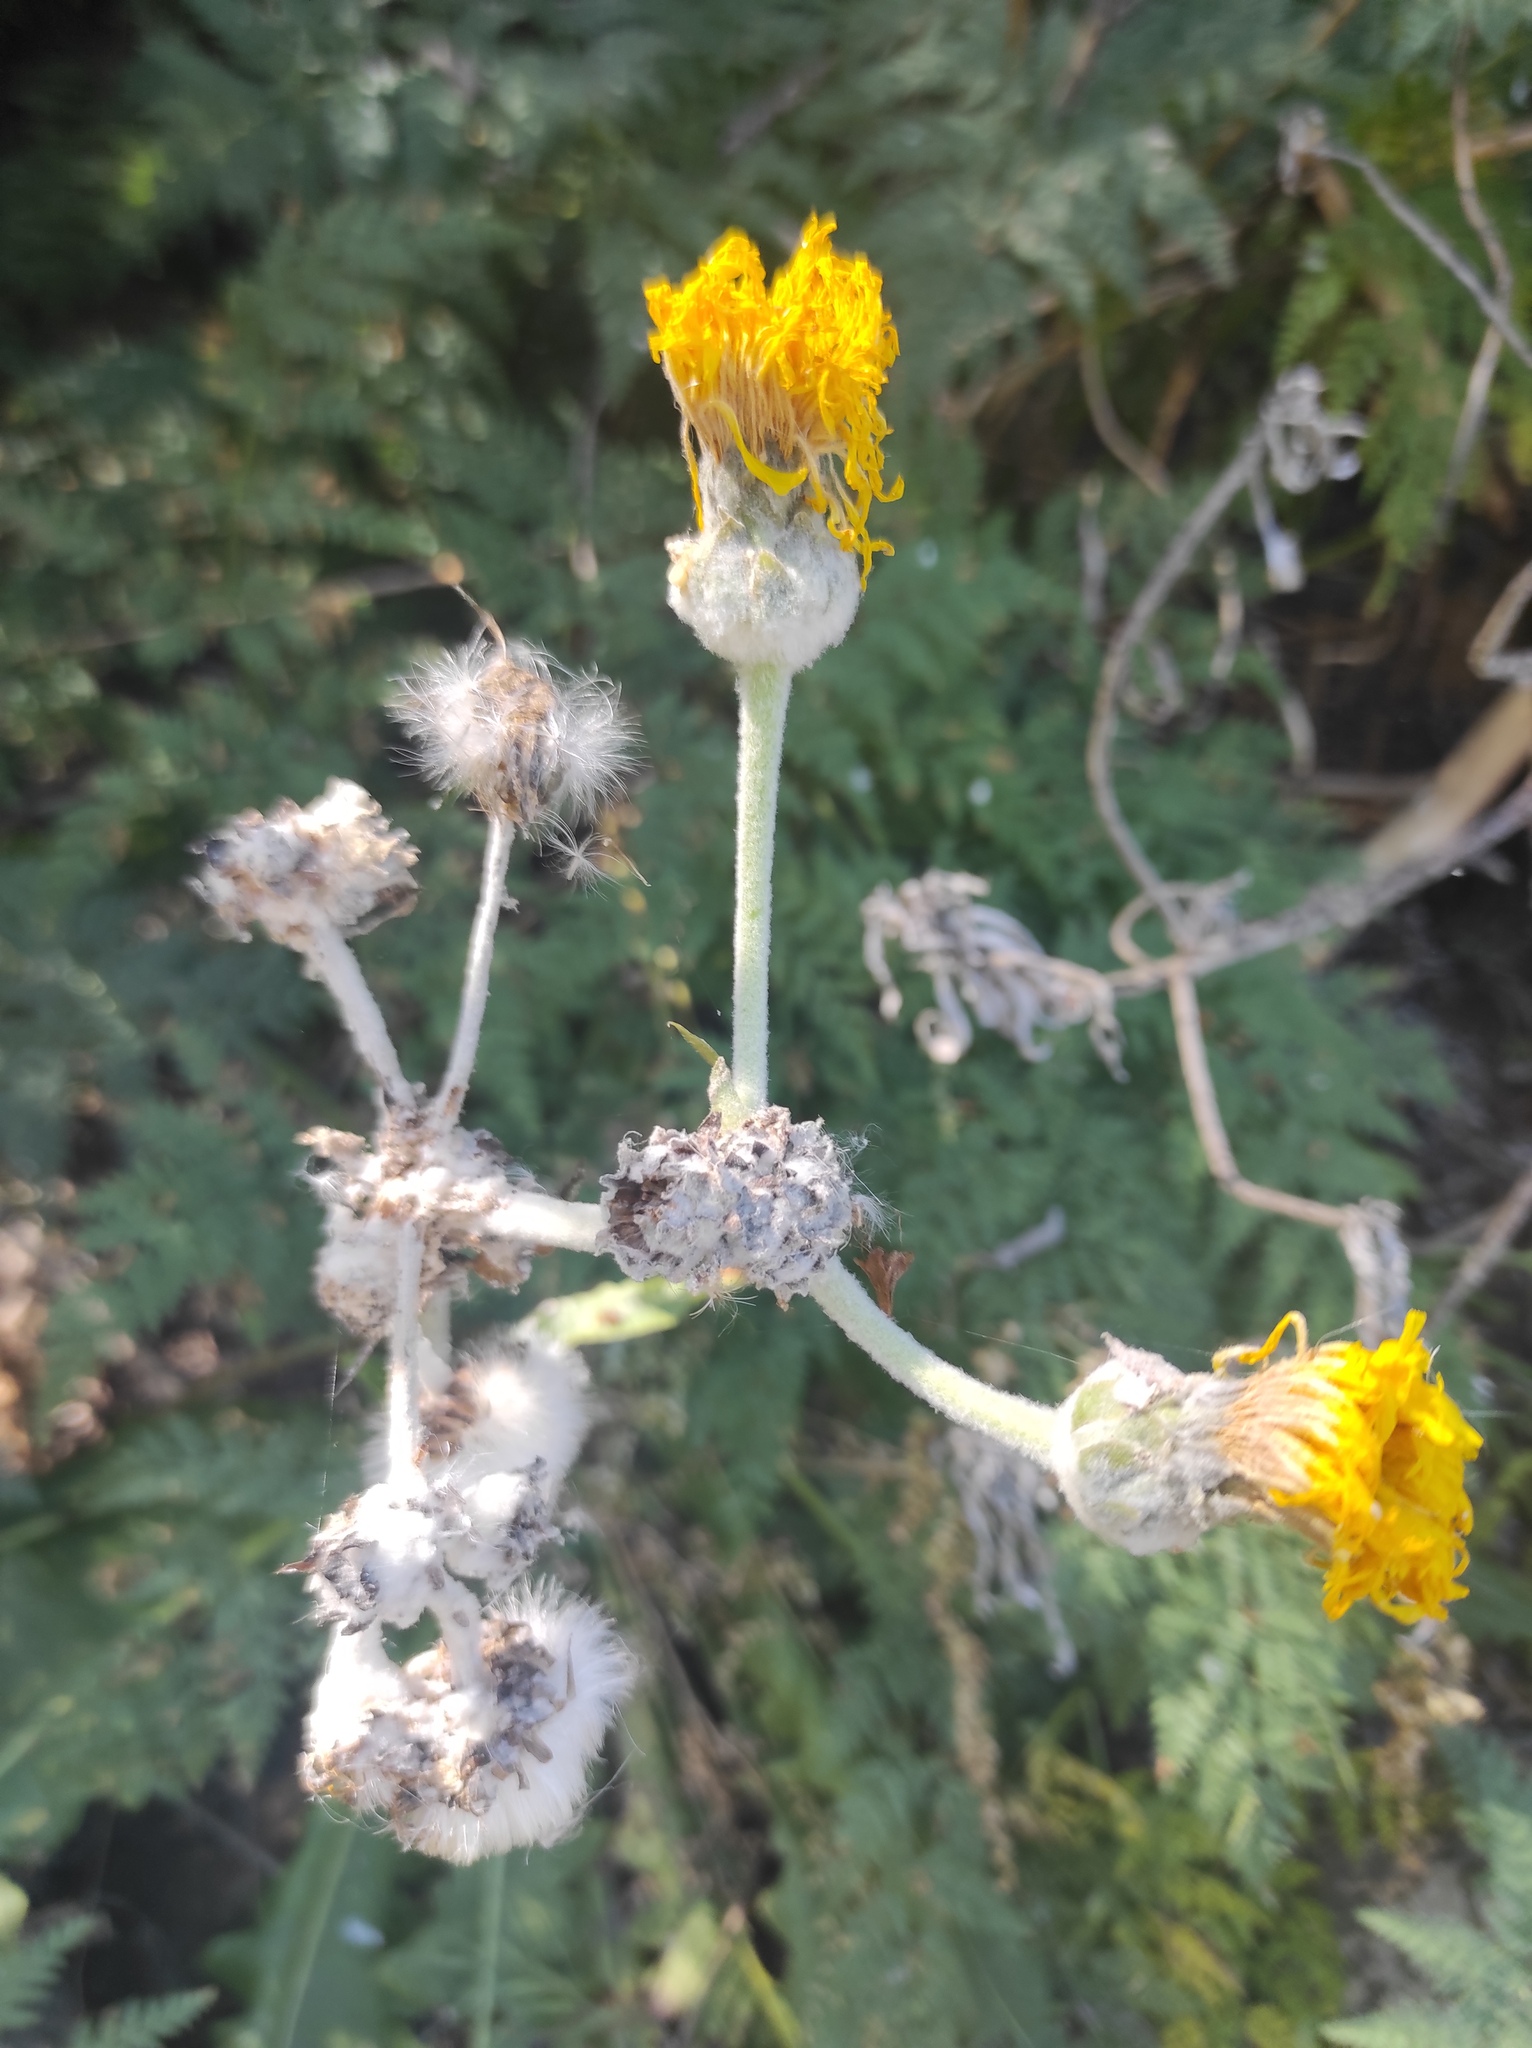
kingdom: Plantae
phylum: Tracheophyta
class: Magnoliopsida
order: Asterales
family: Asteraceae
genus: Sonchus
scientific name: Sonchus acaulis
